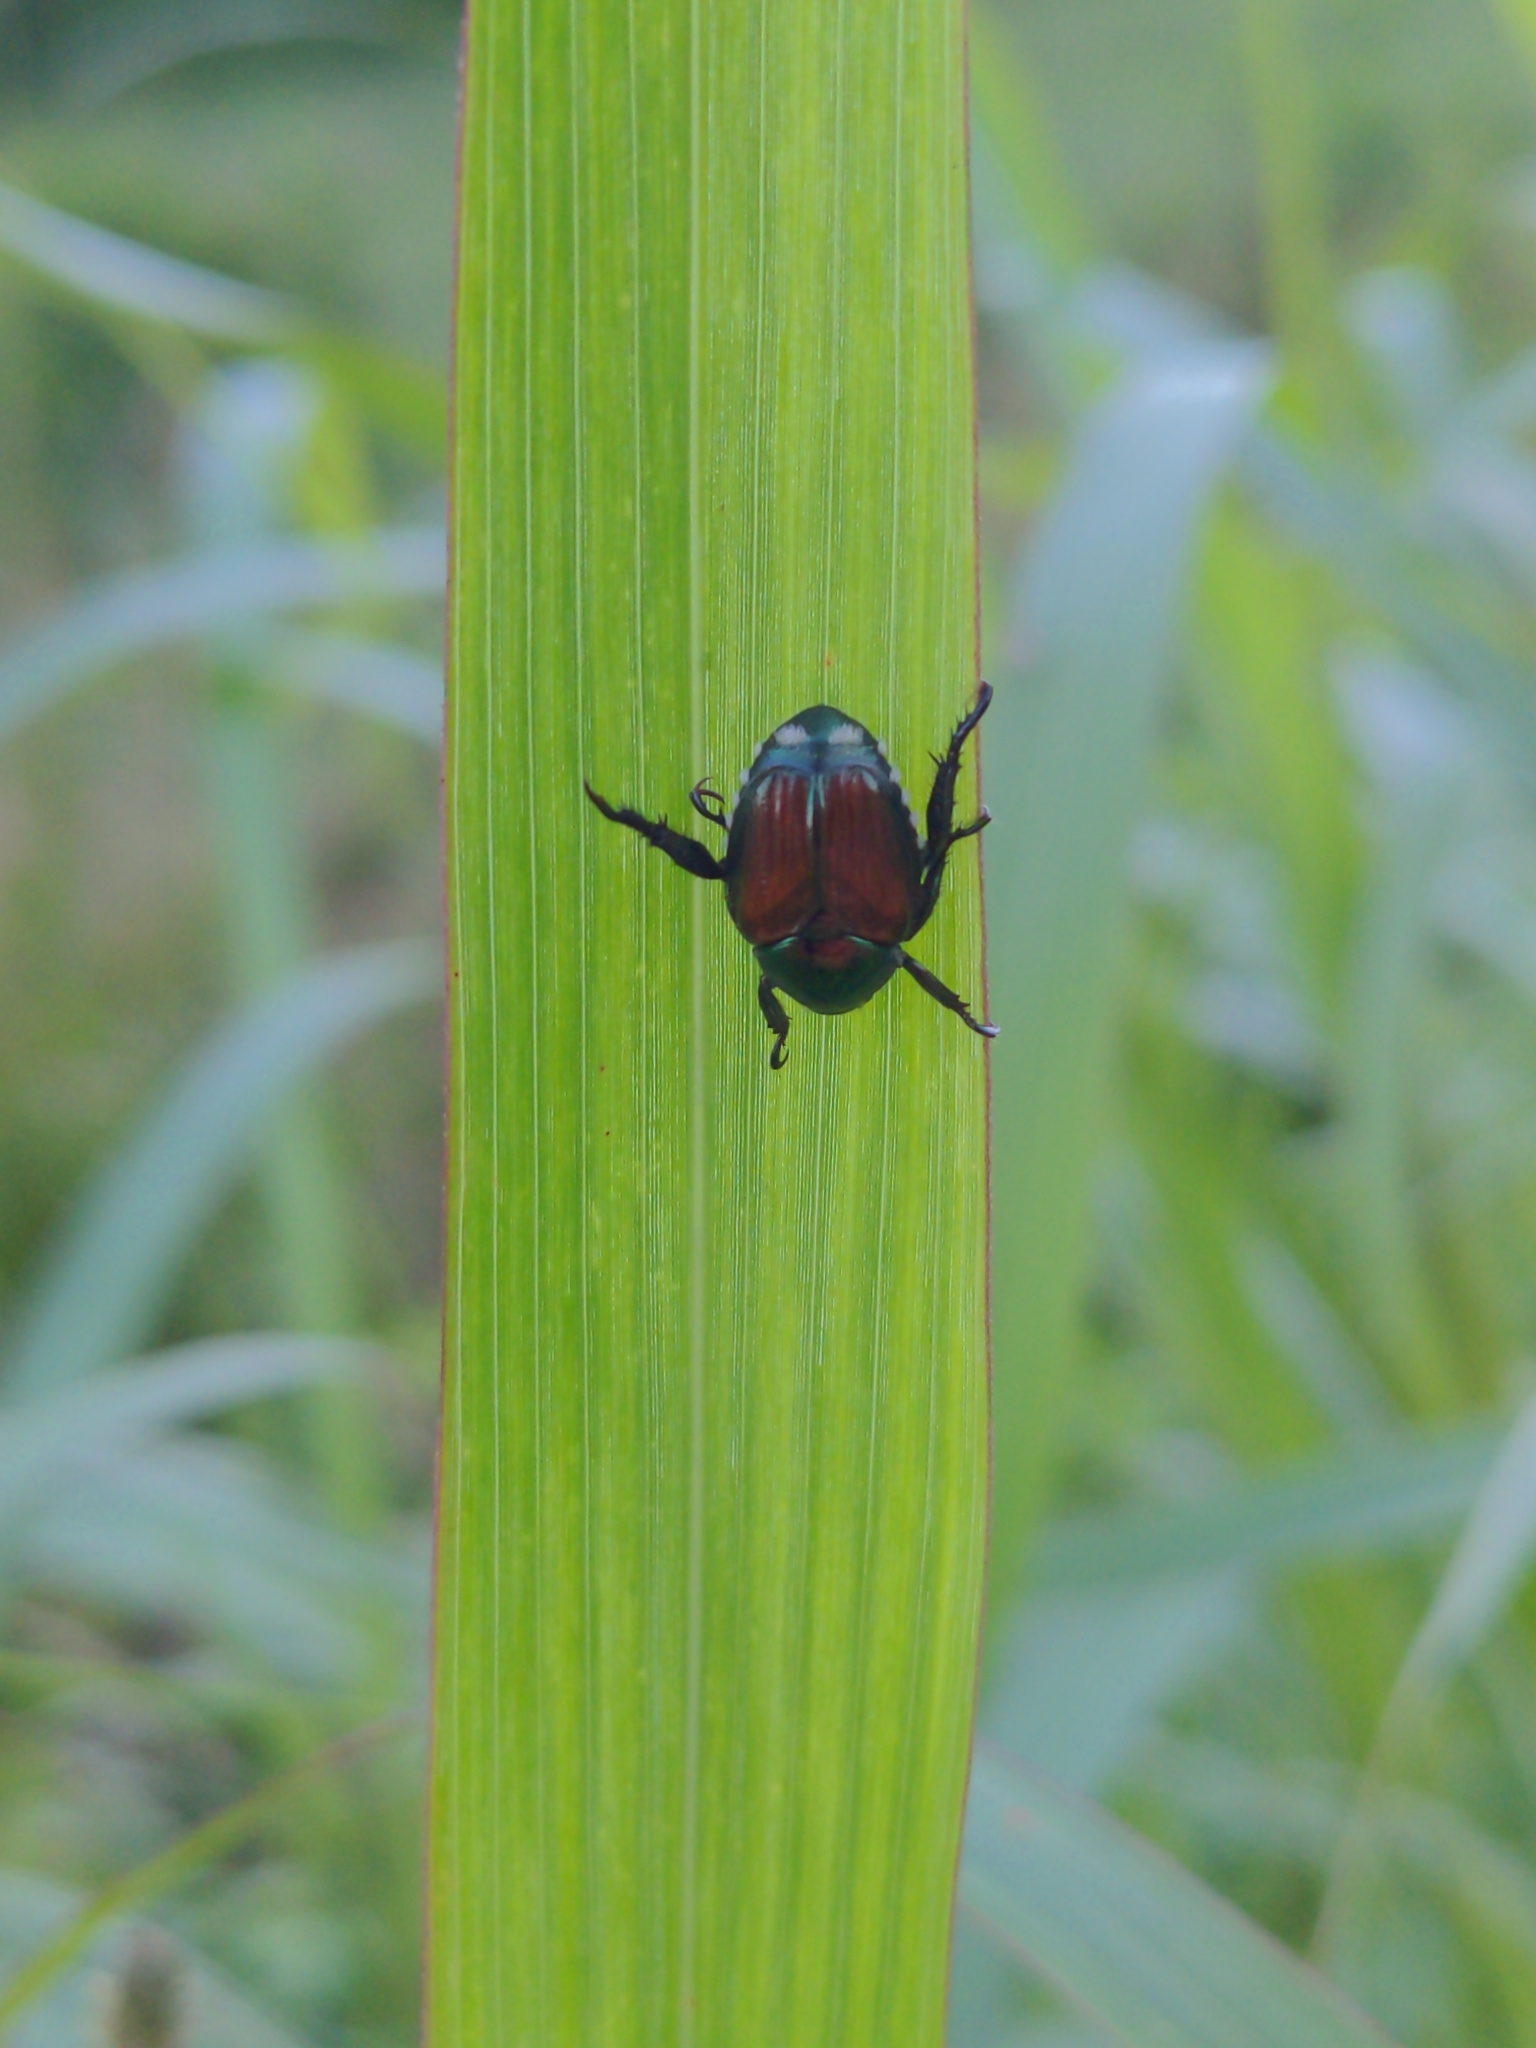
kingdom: Animalia
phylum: Arthropoda
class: Insecta
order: Coleoptera
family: Scarabaeidae
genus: Popillia
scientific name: Popillia japonica
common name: Japanese beetle
